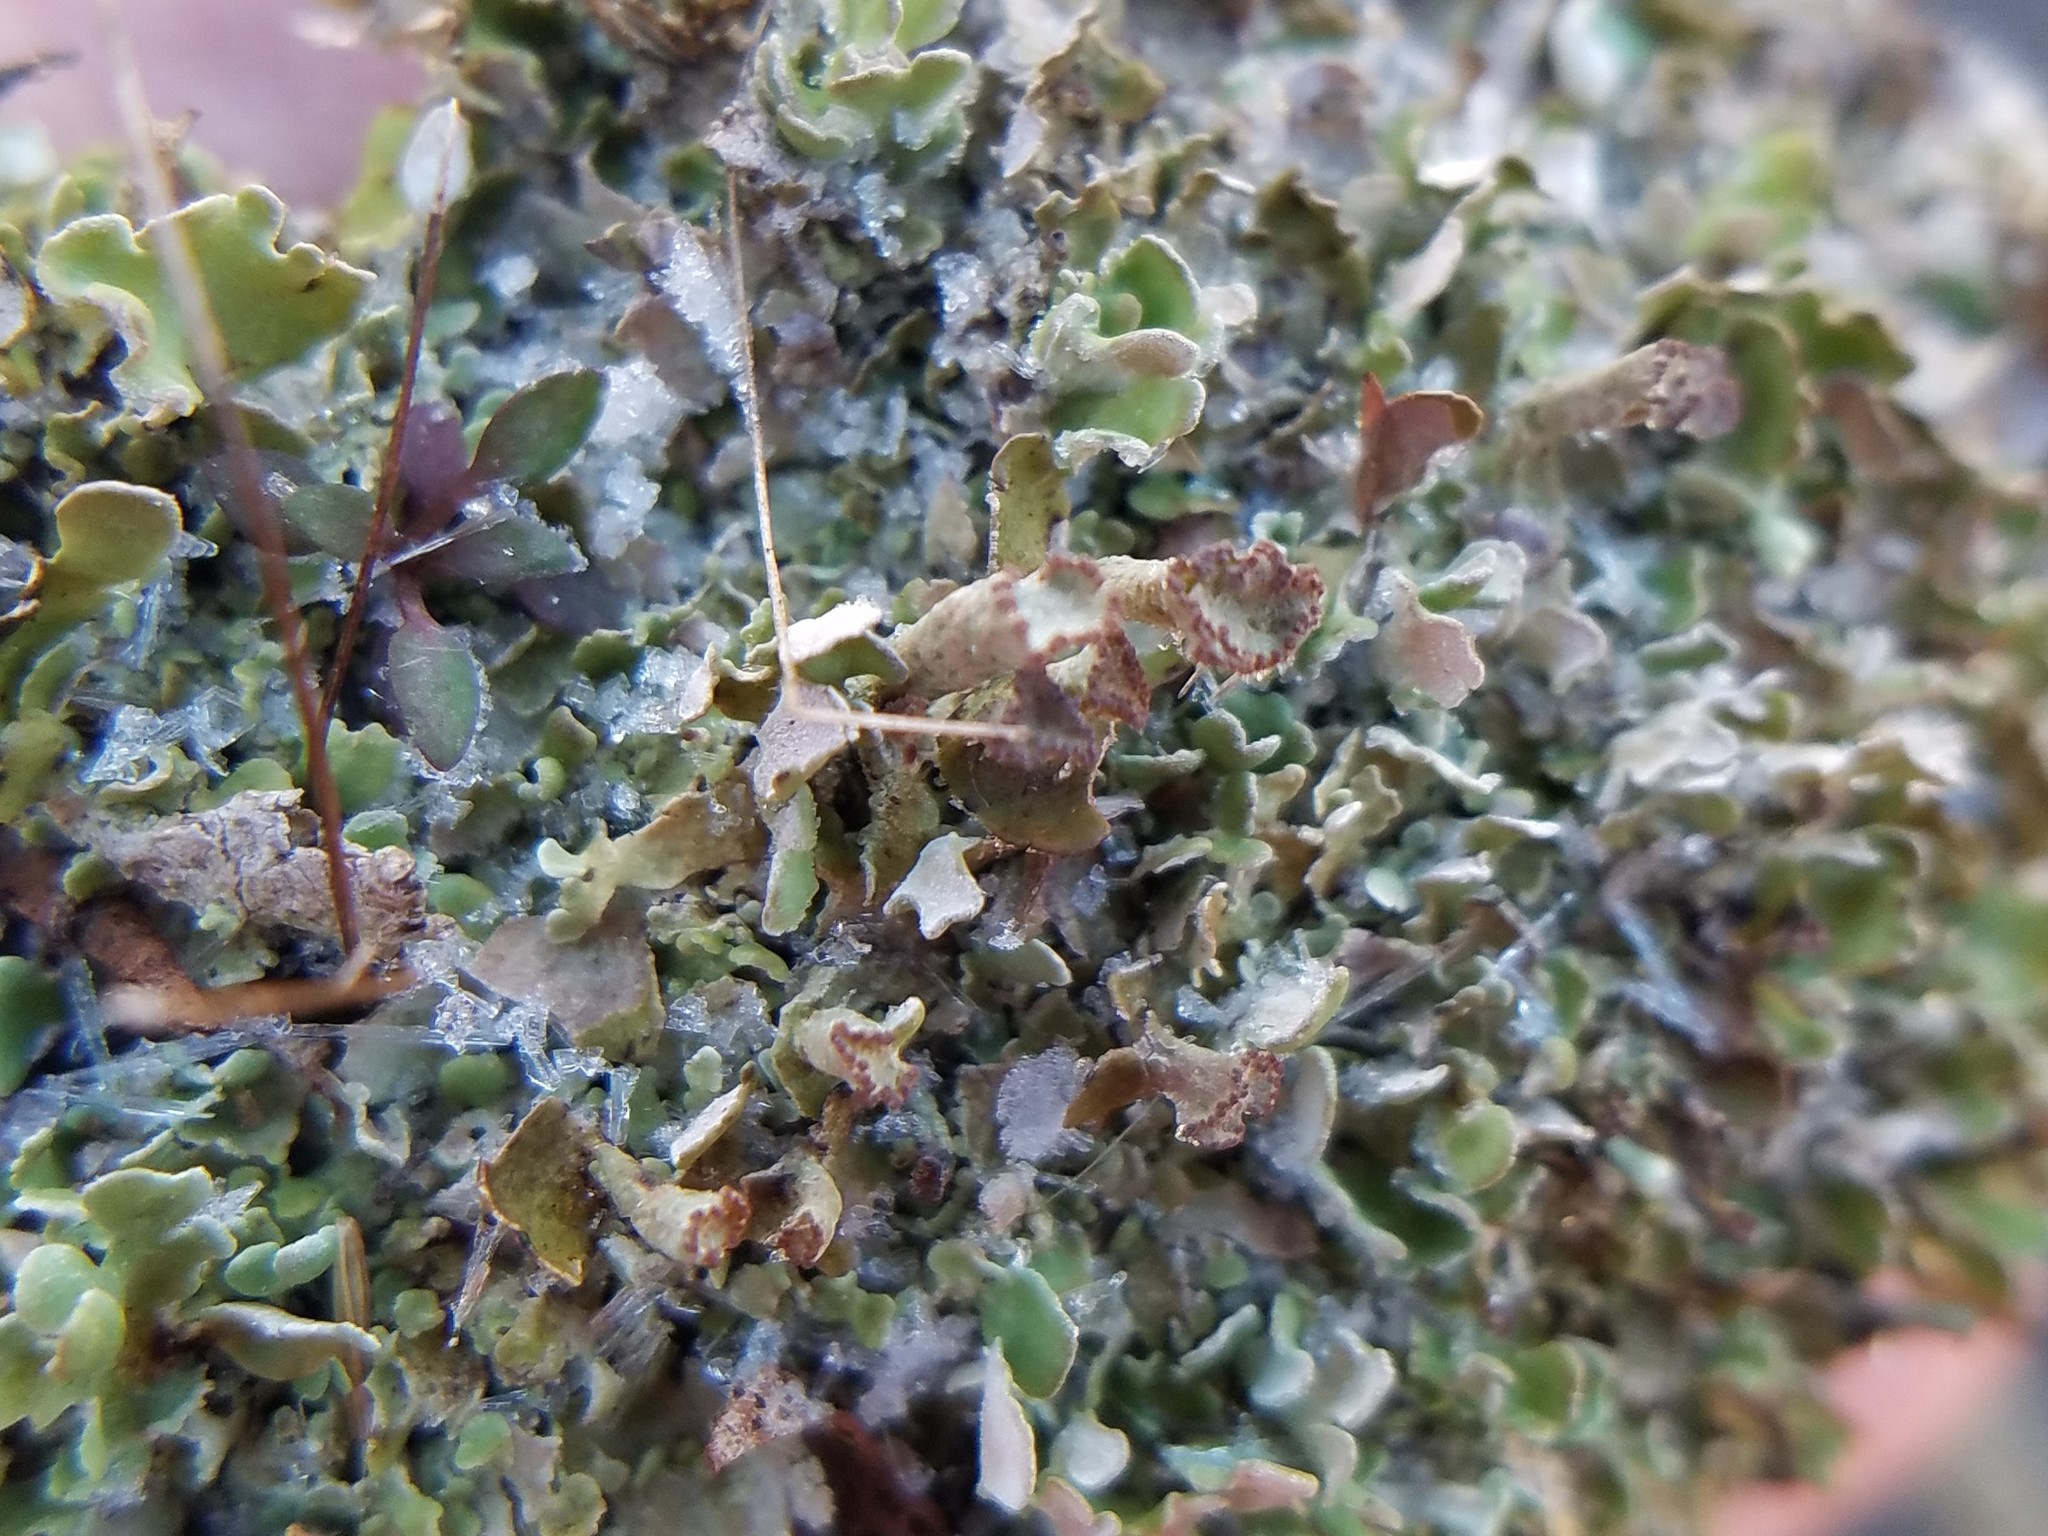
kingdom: Fungi
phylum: Ascomycota
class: Lecanoromycetes
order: Lecanorales
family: Cladoniaceae
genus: Cladonia
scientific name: Cladonia strepsilis
